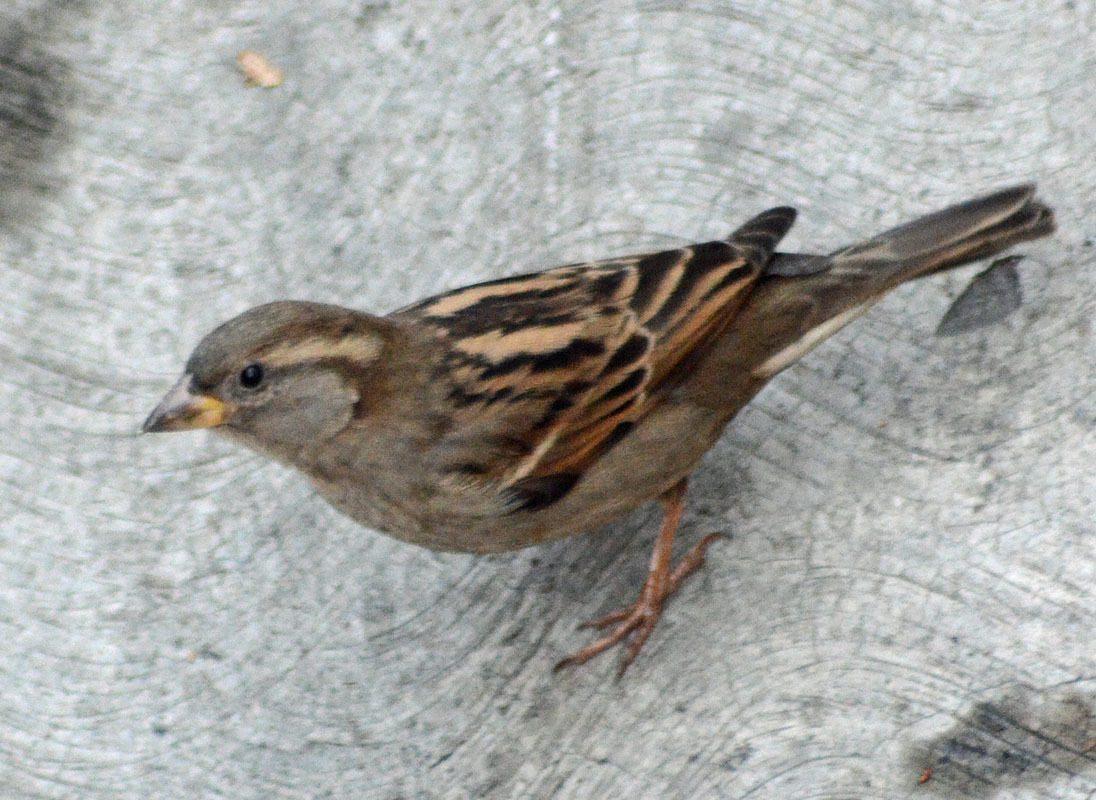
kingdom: Animalia
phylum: Chordata
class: Aves
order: Passeriformes
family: Passeridae
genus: Passer
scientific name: Passer domesticus
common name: House sparrow
